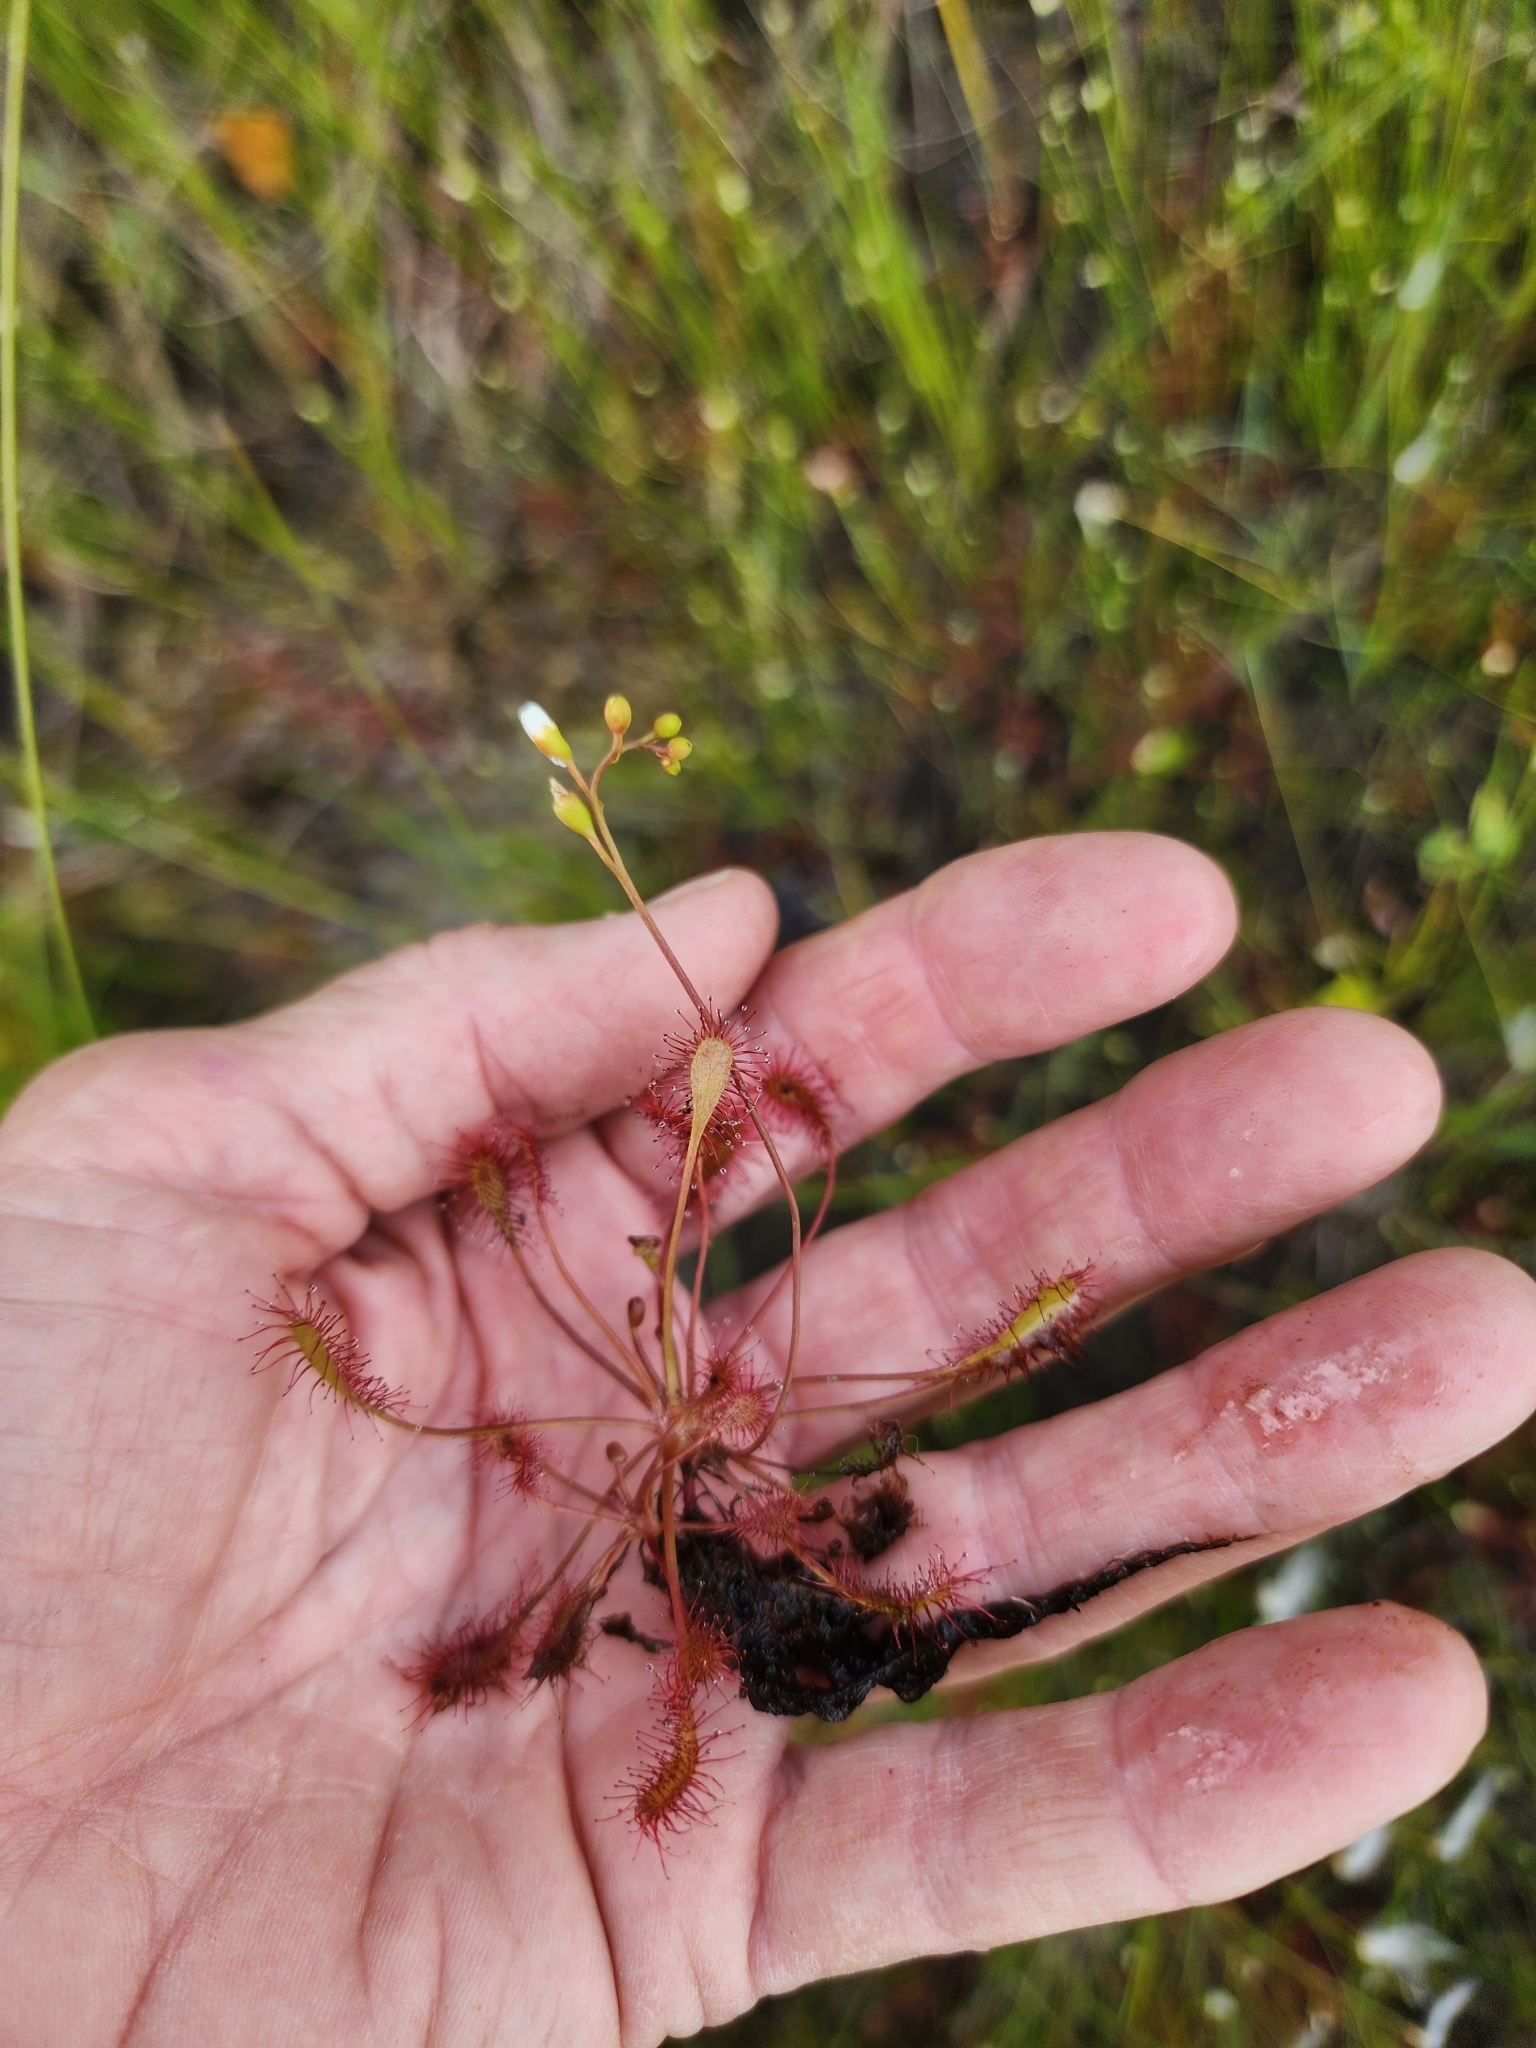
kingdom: Plantae
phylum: Tracheophyta
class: Magnoliopsida
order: Caryophyllales
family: Droseraceae
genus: Drosera
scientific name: Drosera intermedia
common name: Oblong-leaved sundew
